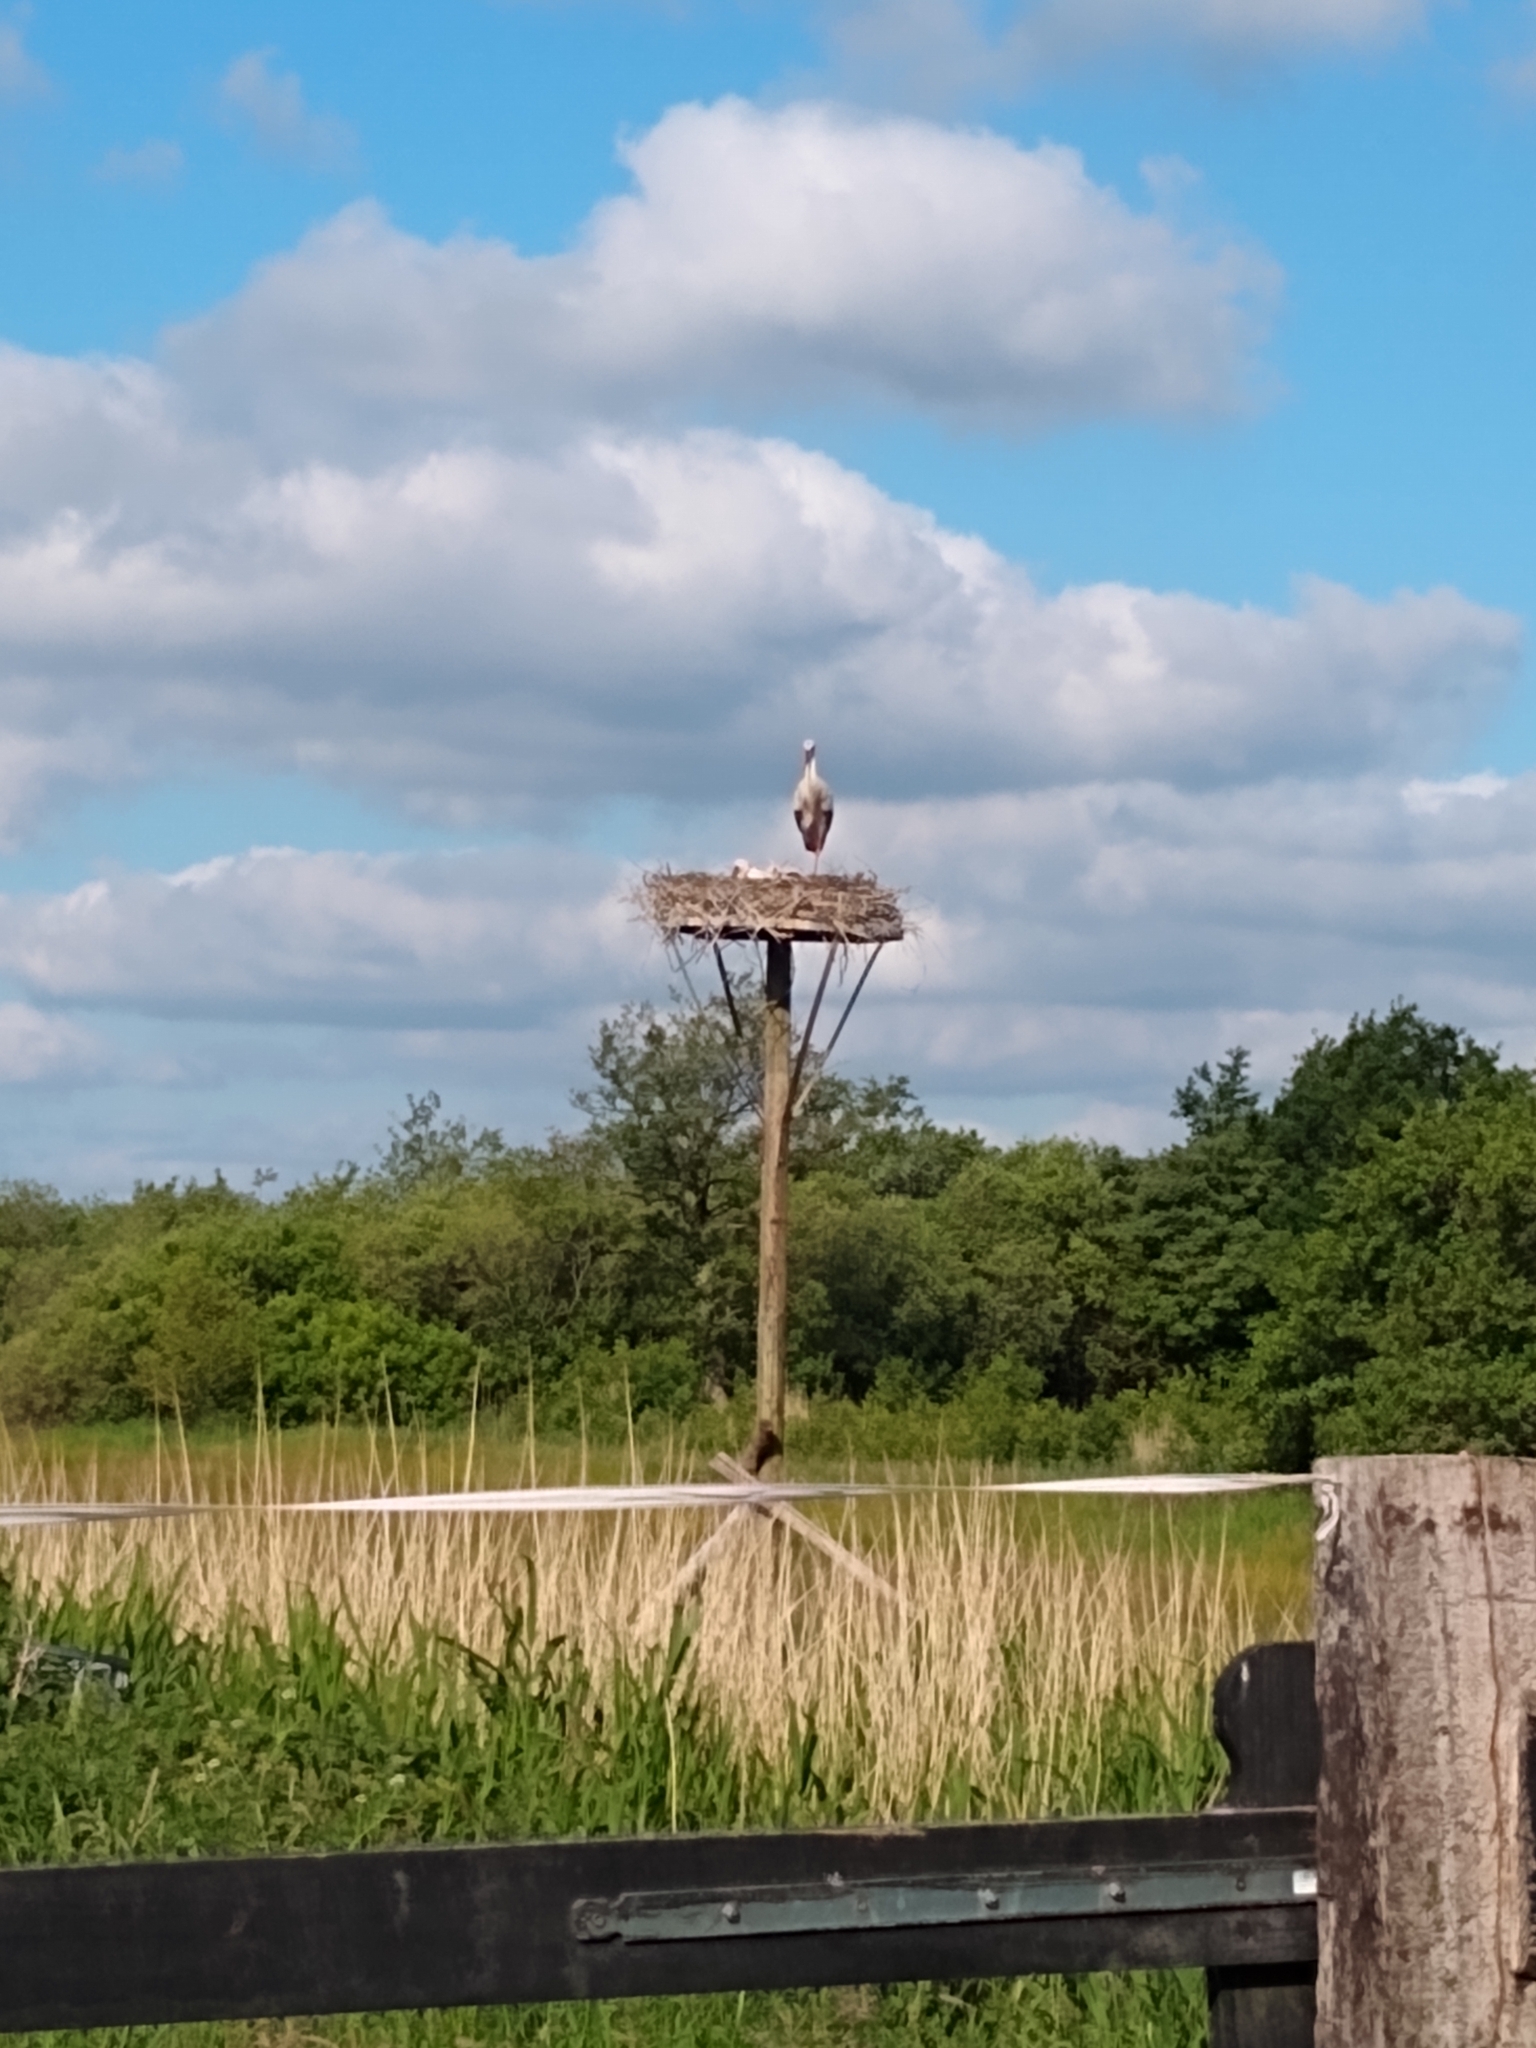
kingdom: Animalia
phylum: Chordata
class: Aves
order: Ciconiiformes
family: Ciconiidae
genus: Ciconia
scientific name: Ciconia ciconia
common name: White stork
